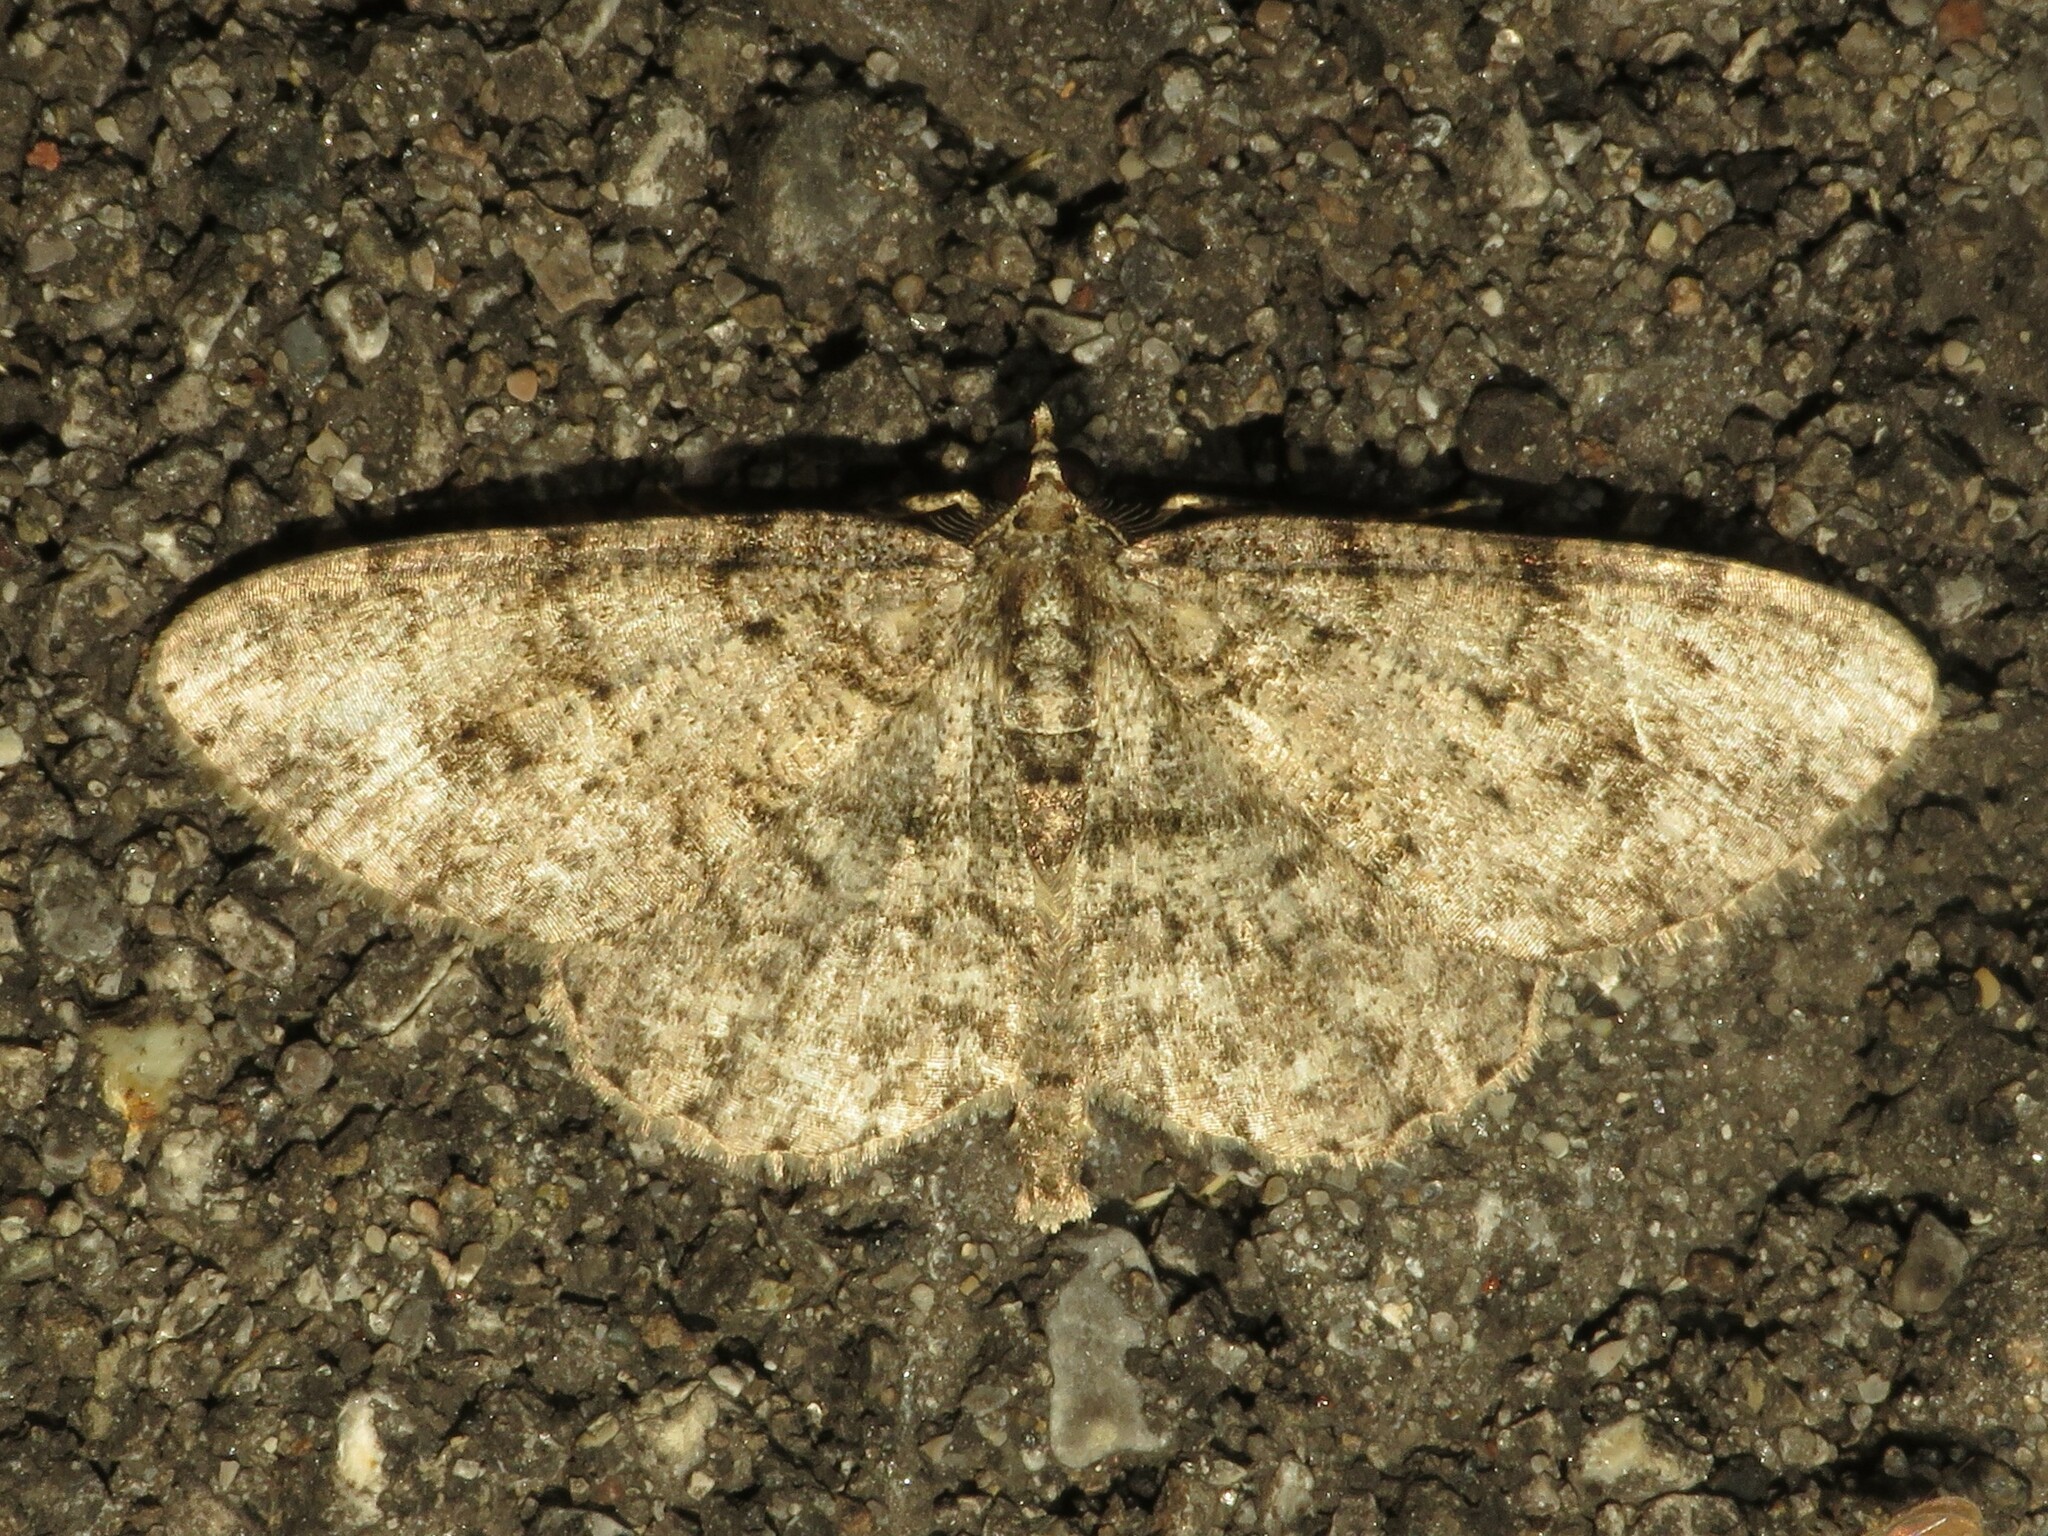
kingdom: Animalia
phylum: Arthropoda
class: Insecta
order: Lepidoptera
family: Geometridae
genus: Protoboarmia
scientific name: Protoboarmia porcelaria
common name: Porcelain gray
